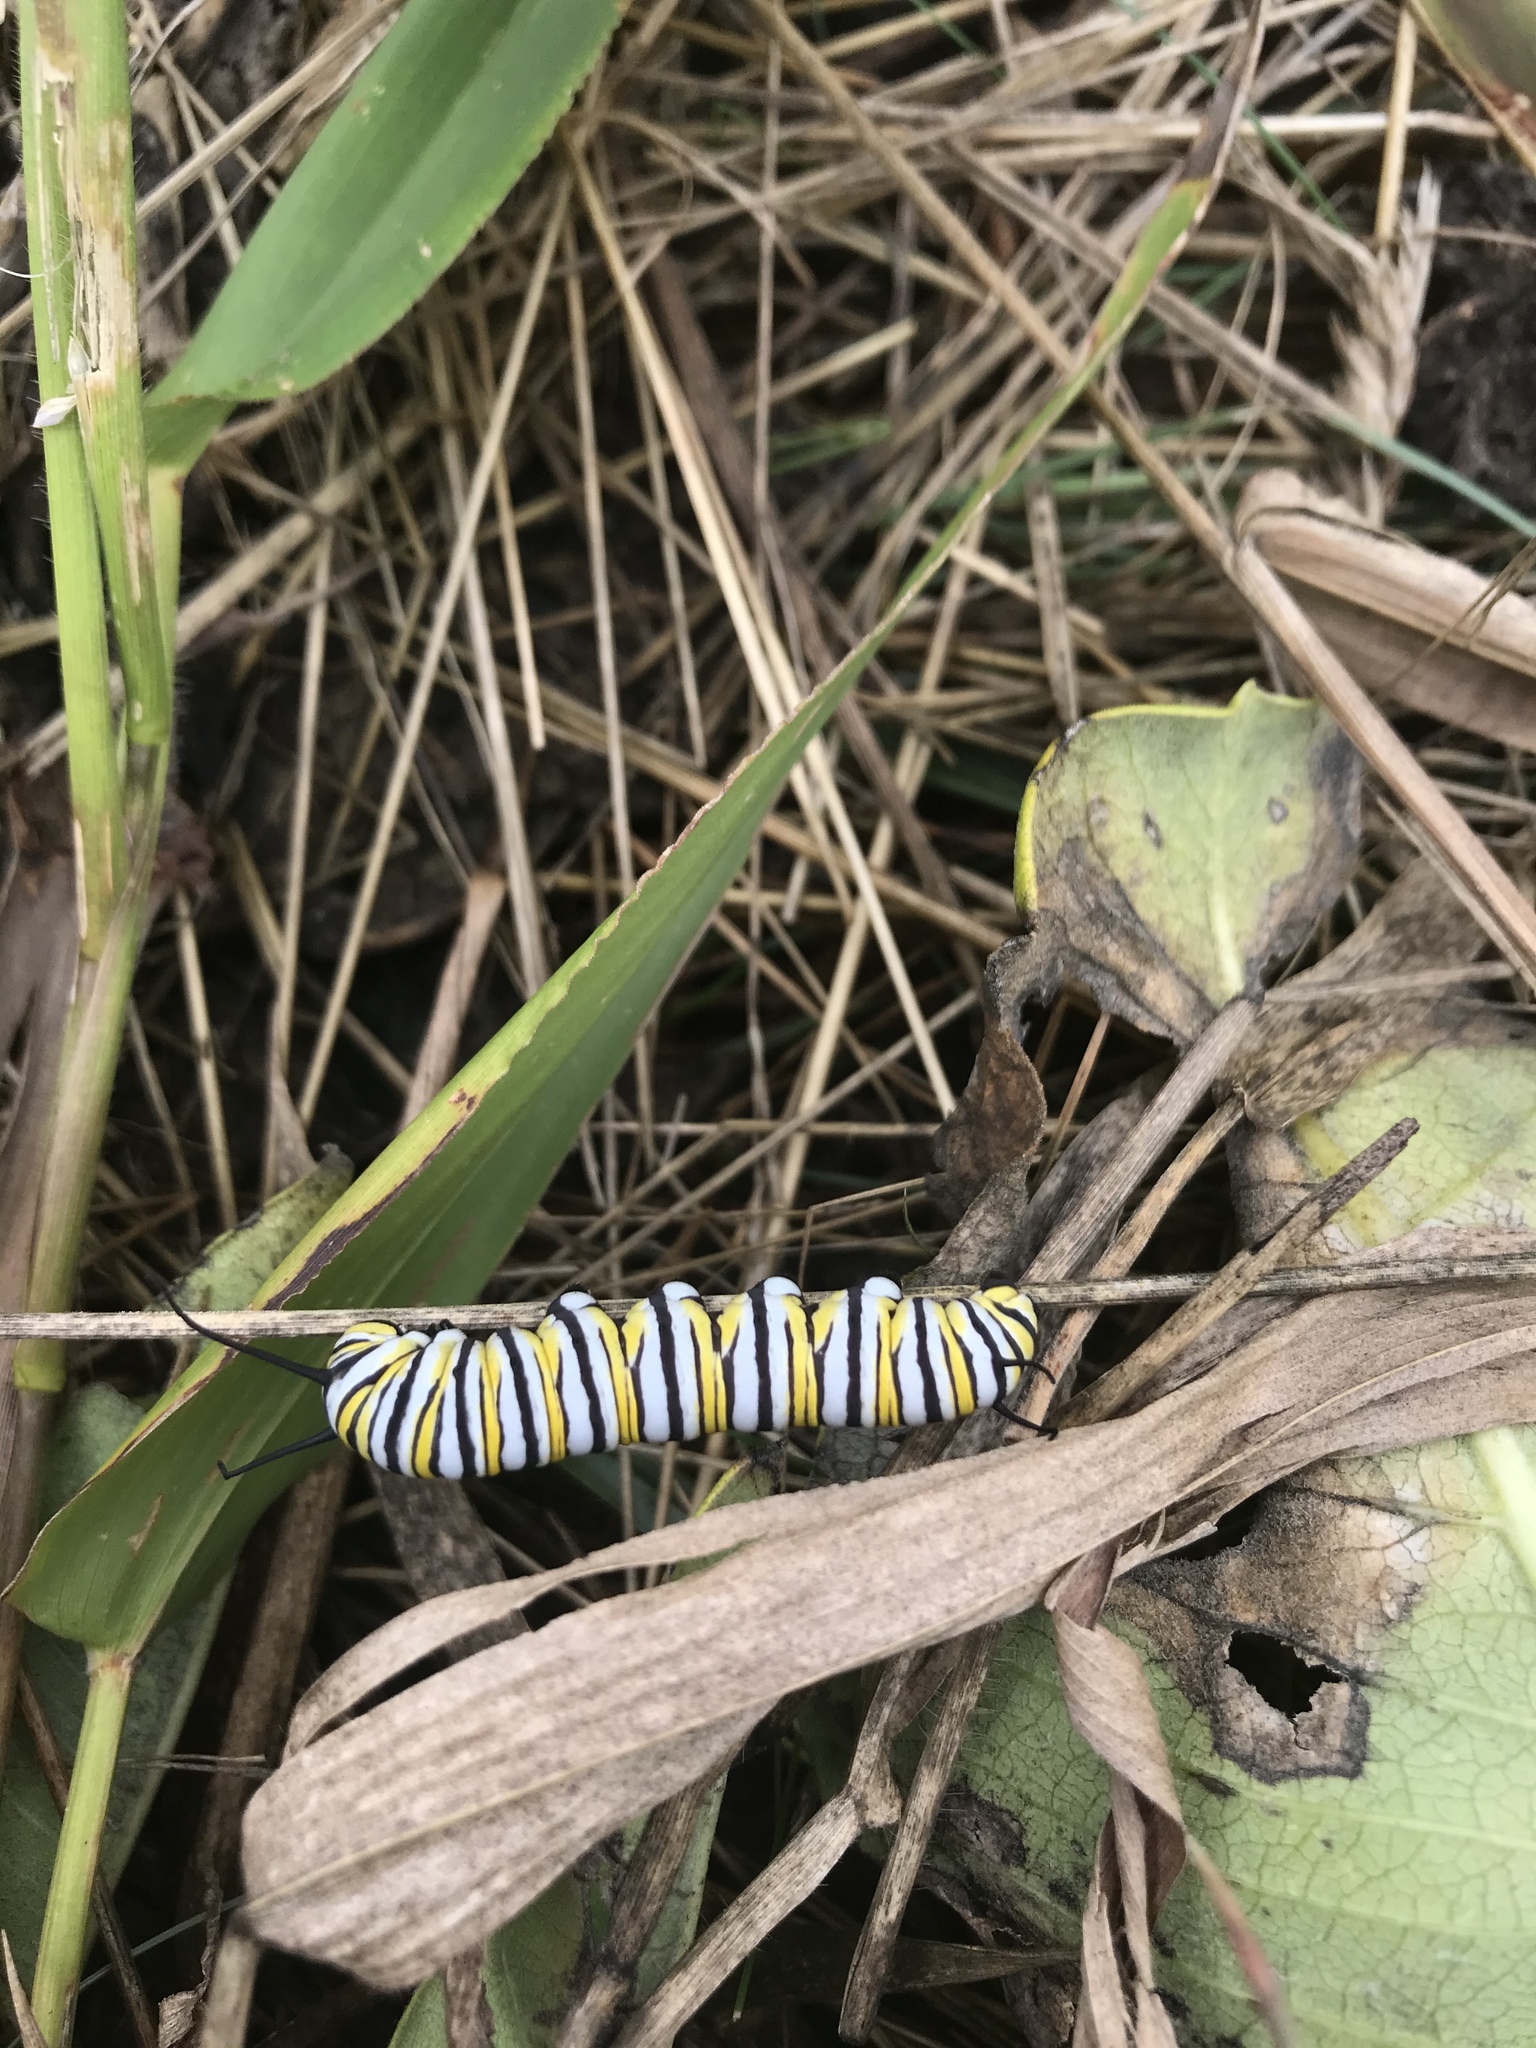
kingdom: Animalia
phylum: Arthropoda
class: Insecta
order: Lepidoptera
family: Nymphalidae
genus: Danaus
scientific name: Danaus plexippus
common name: Monarch
